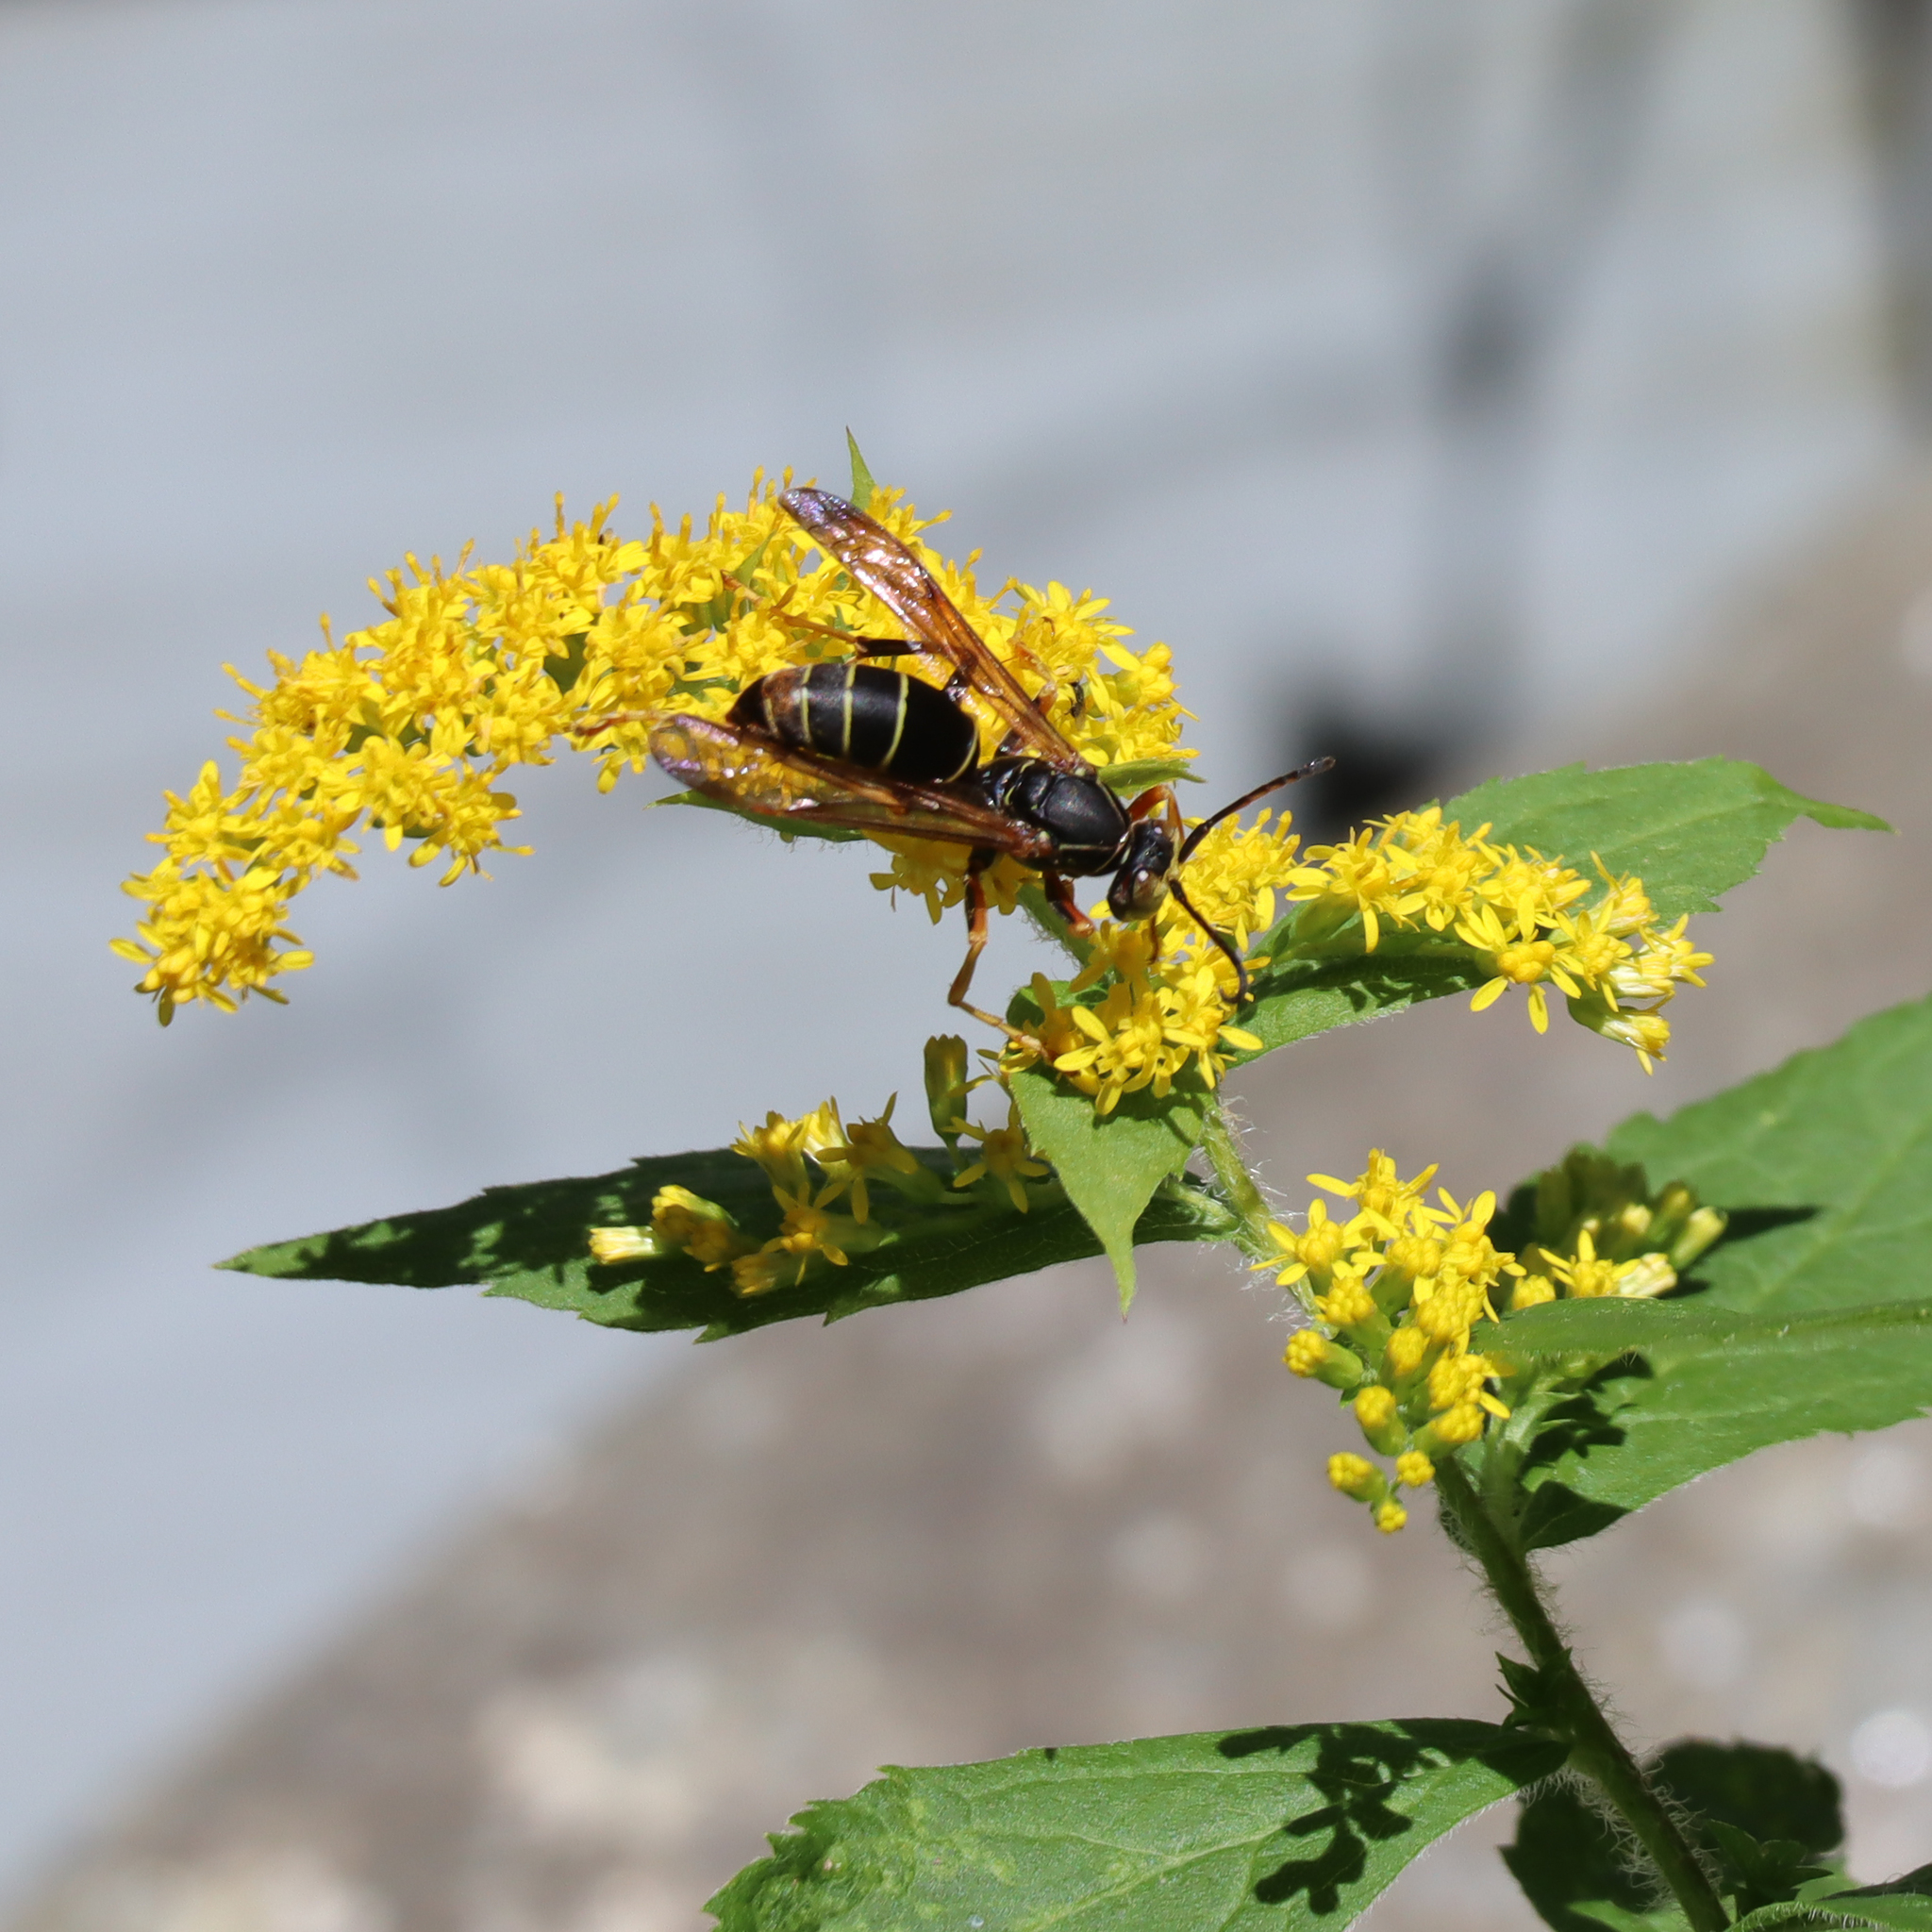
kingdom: Animalia
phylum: Arthropoda
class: Insecta
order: Hymenoptera
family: Eumenidae
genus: Polistes
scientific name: Polistes fuscatus
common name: Dark paper wasp
